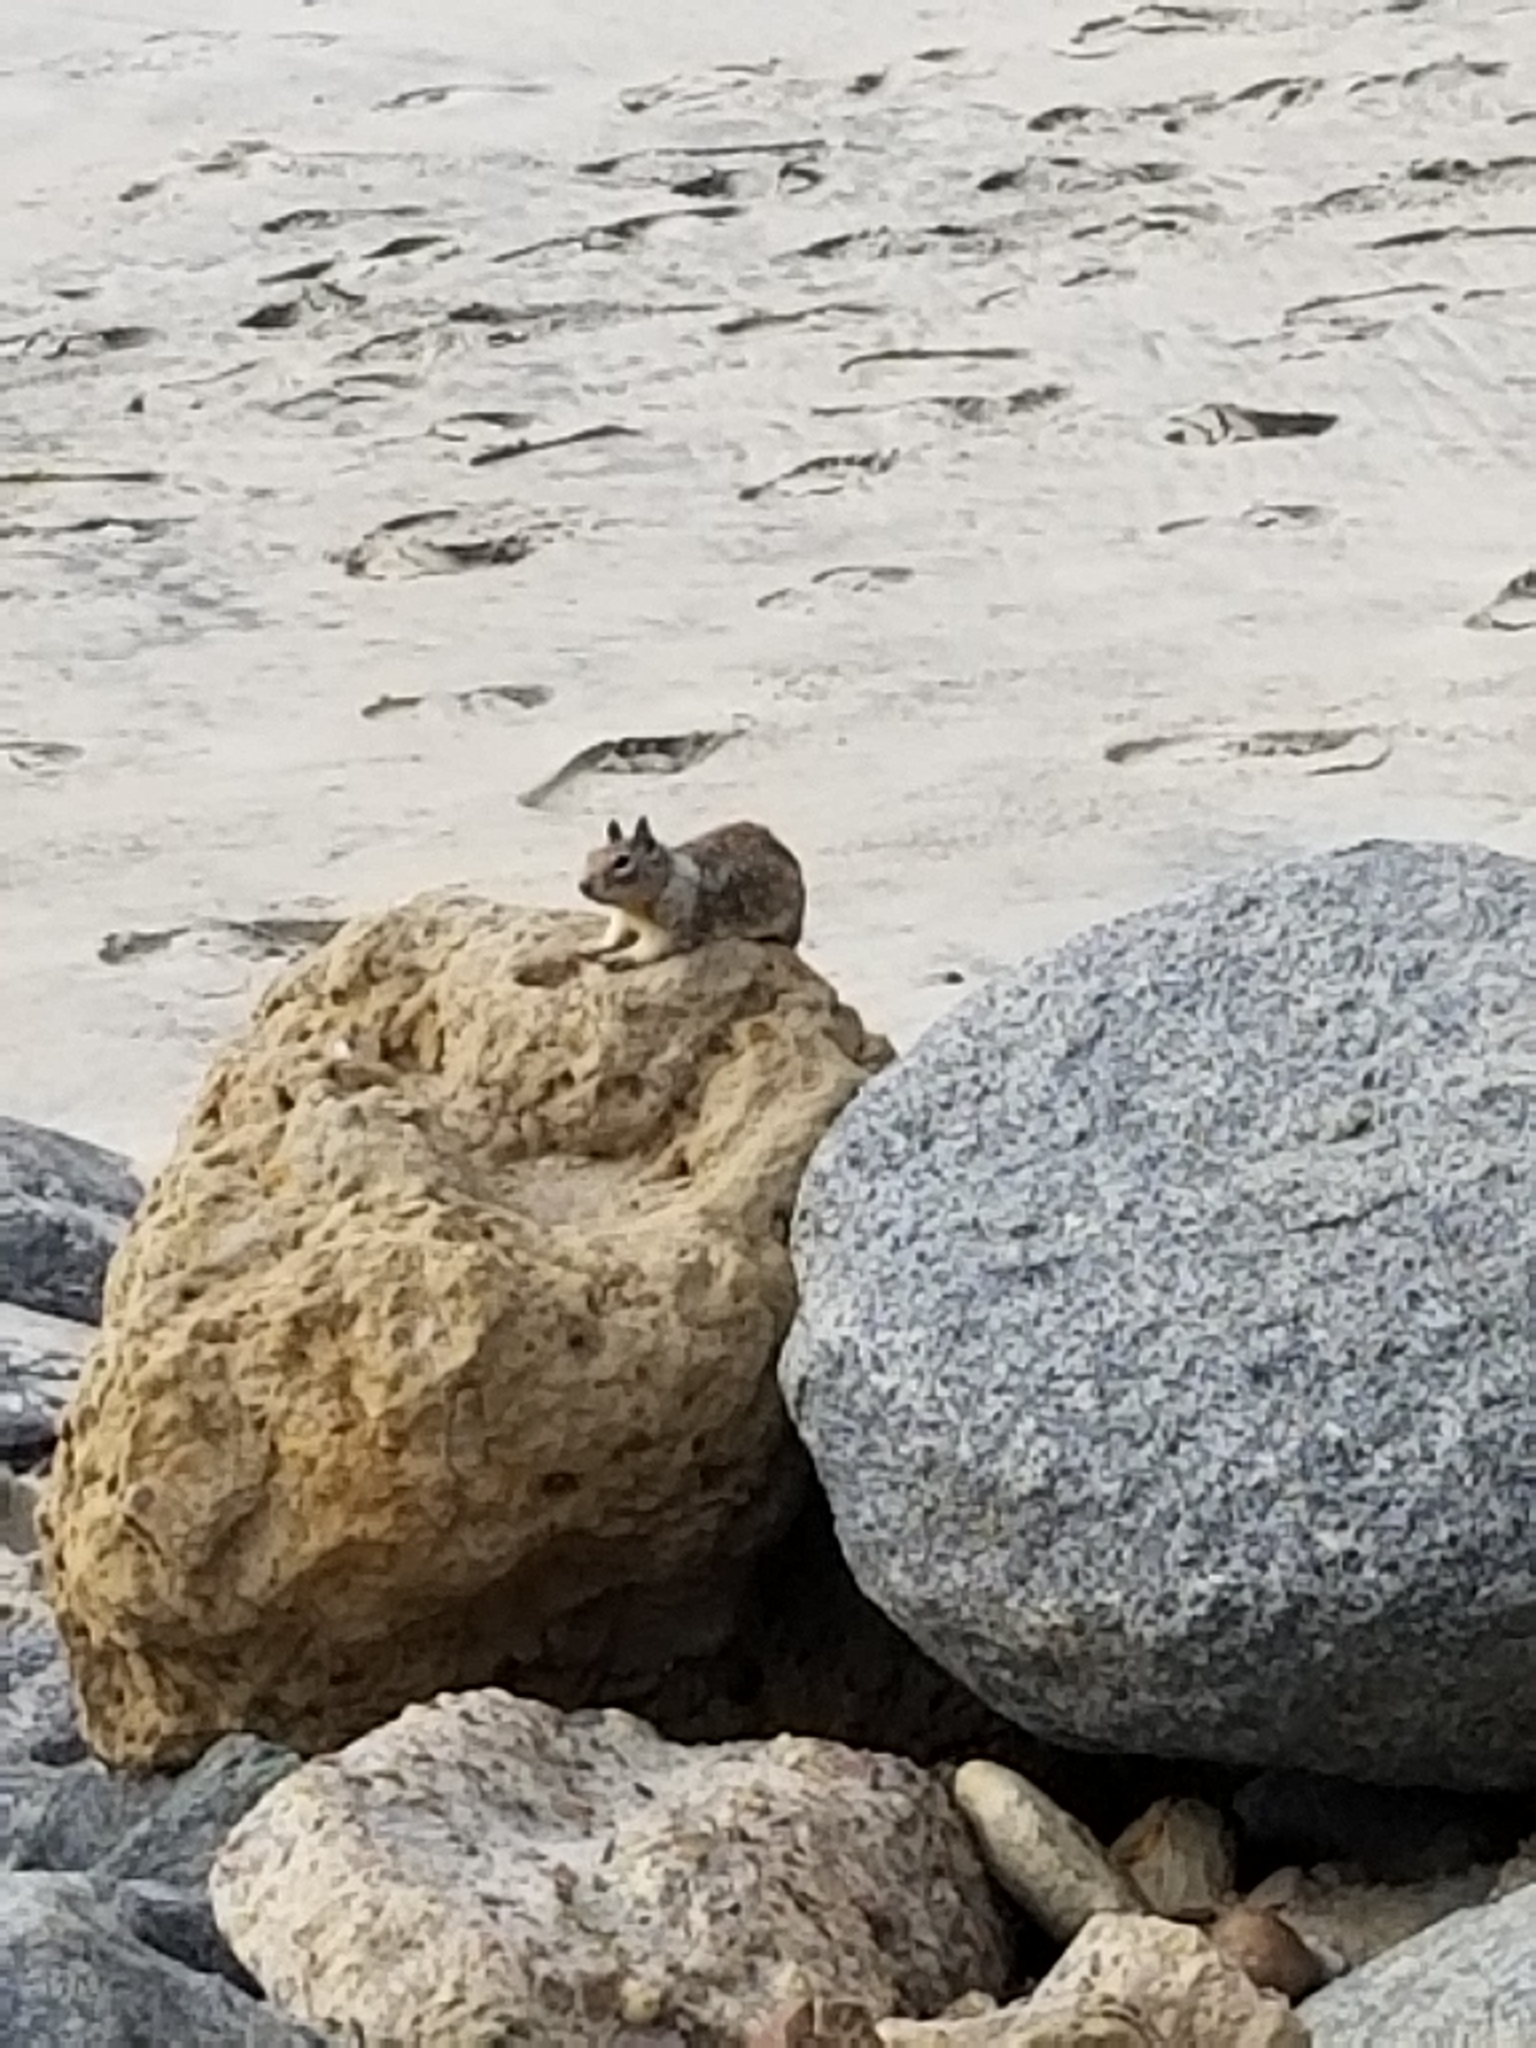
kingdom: Animalia
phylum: Chordata
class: Mammalia
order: Rodentia
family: Sciuridae
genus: Otospermophilus
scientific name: Otospermophilus beecheyi
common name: California ground squirrel
